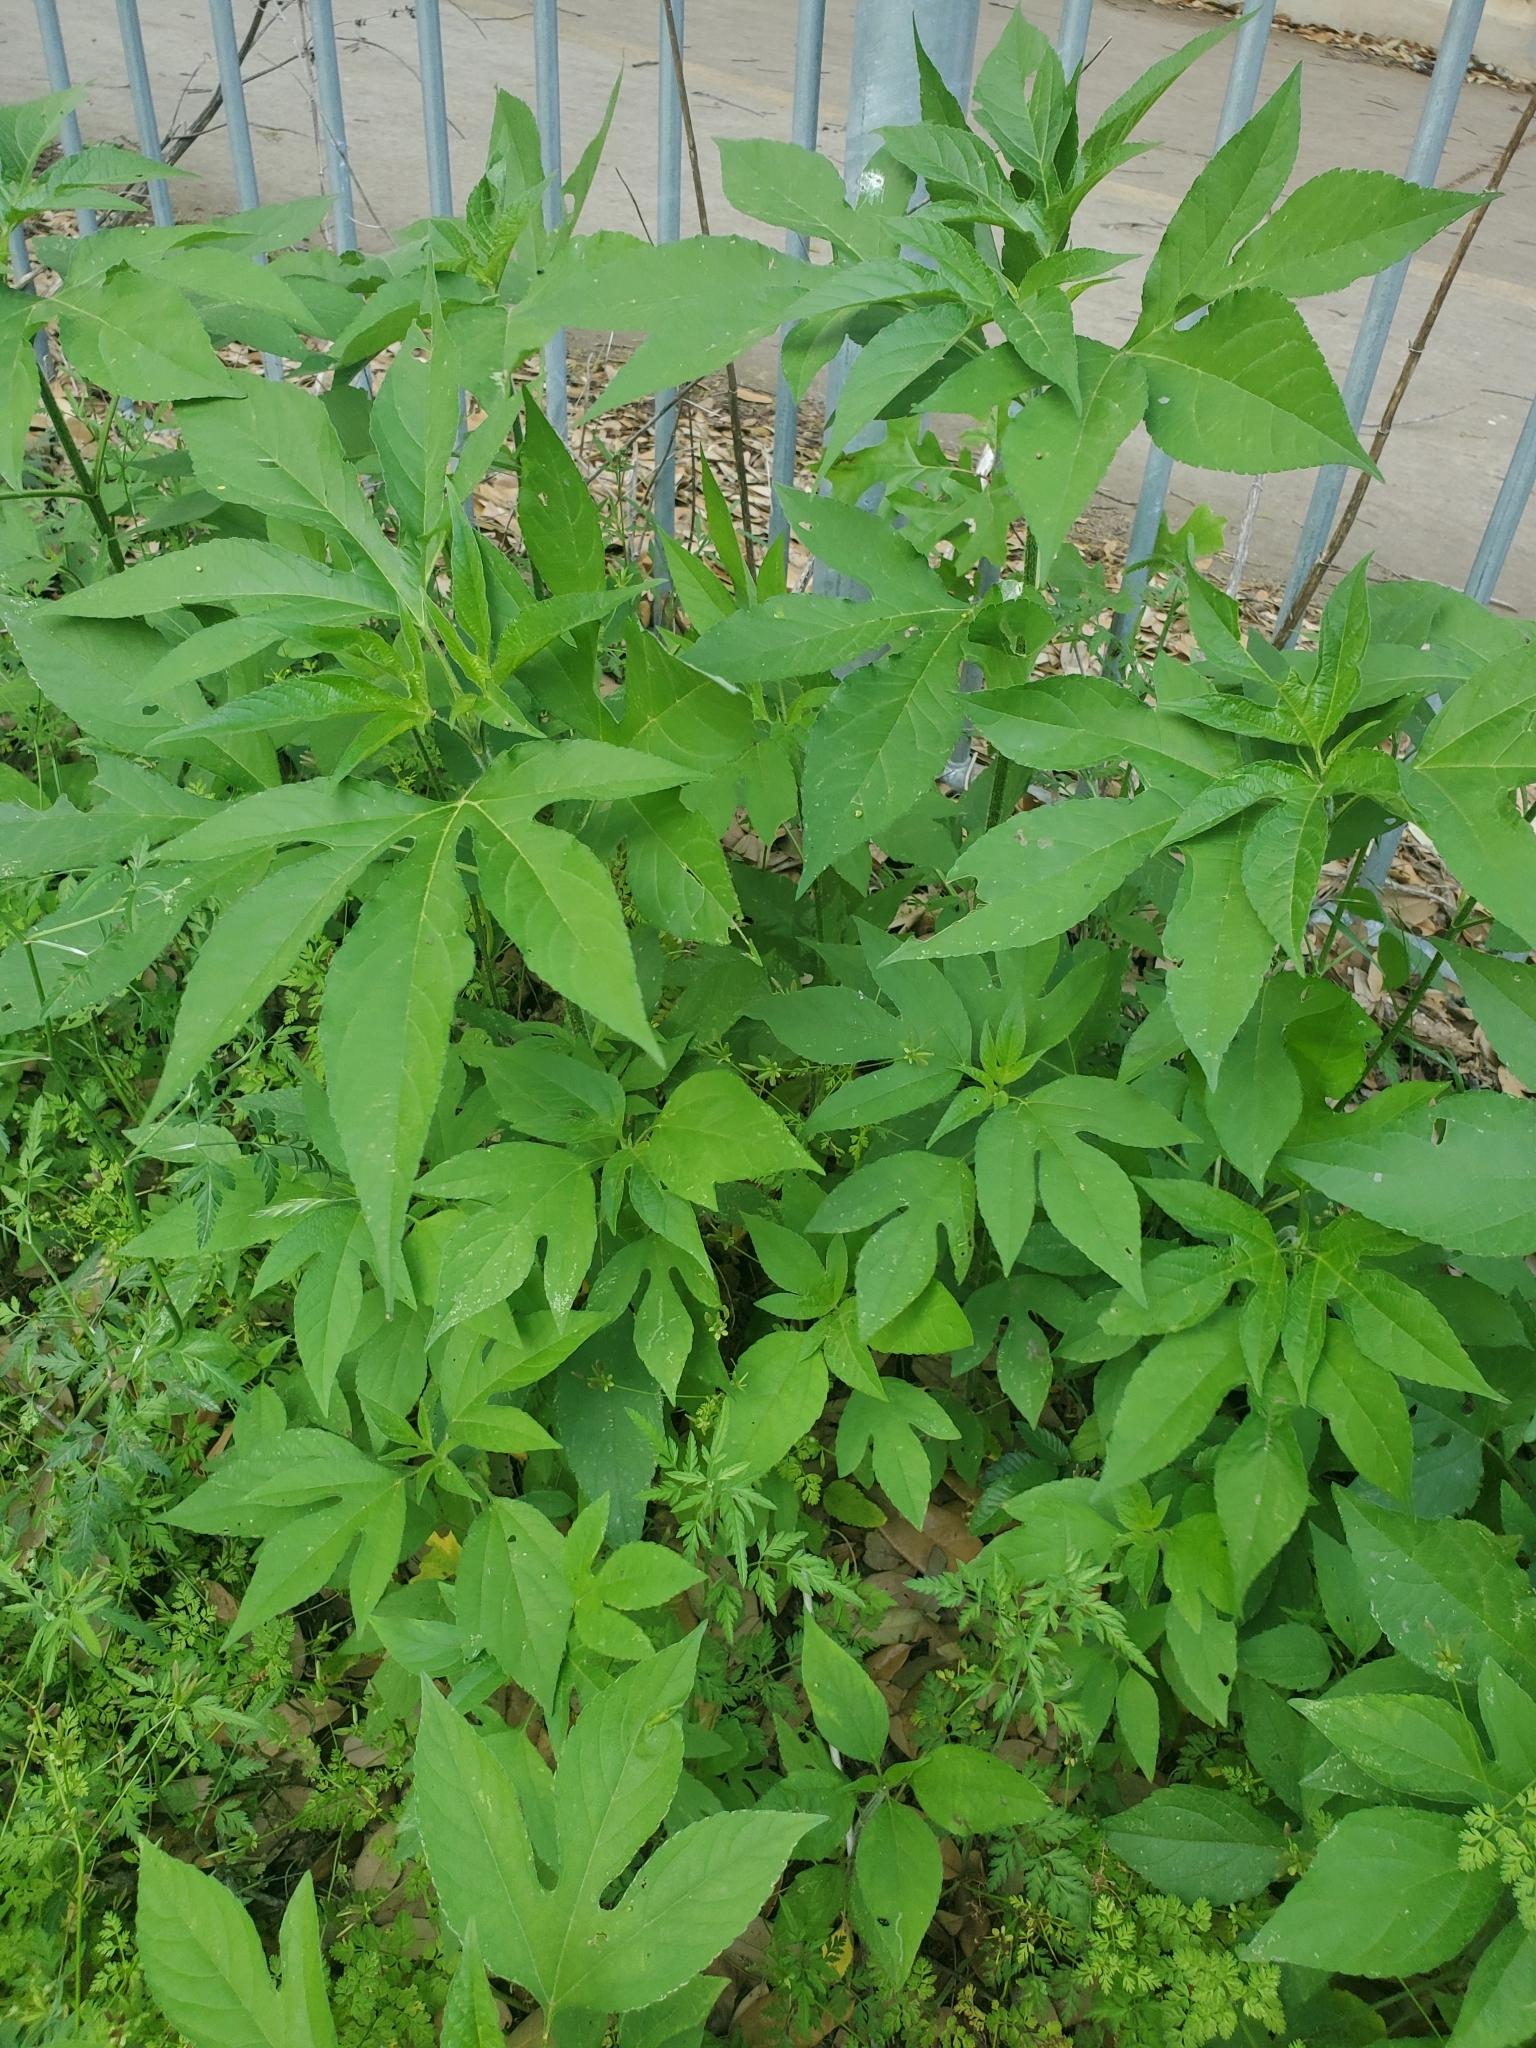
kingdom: Plantae
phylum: Tracheophyta
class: Magnoliopsida
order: Asterales
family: Asteraceae
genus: Ambrosia
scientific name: Ambrosia trifida
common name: Giant ragweed
